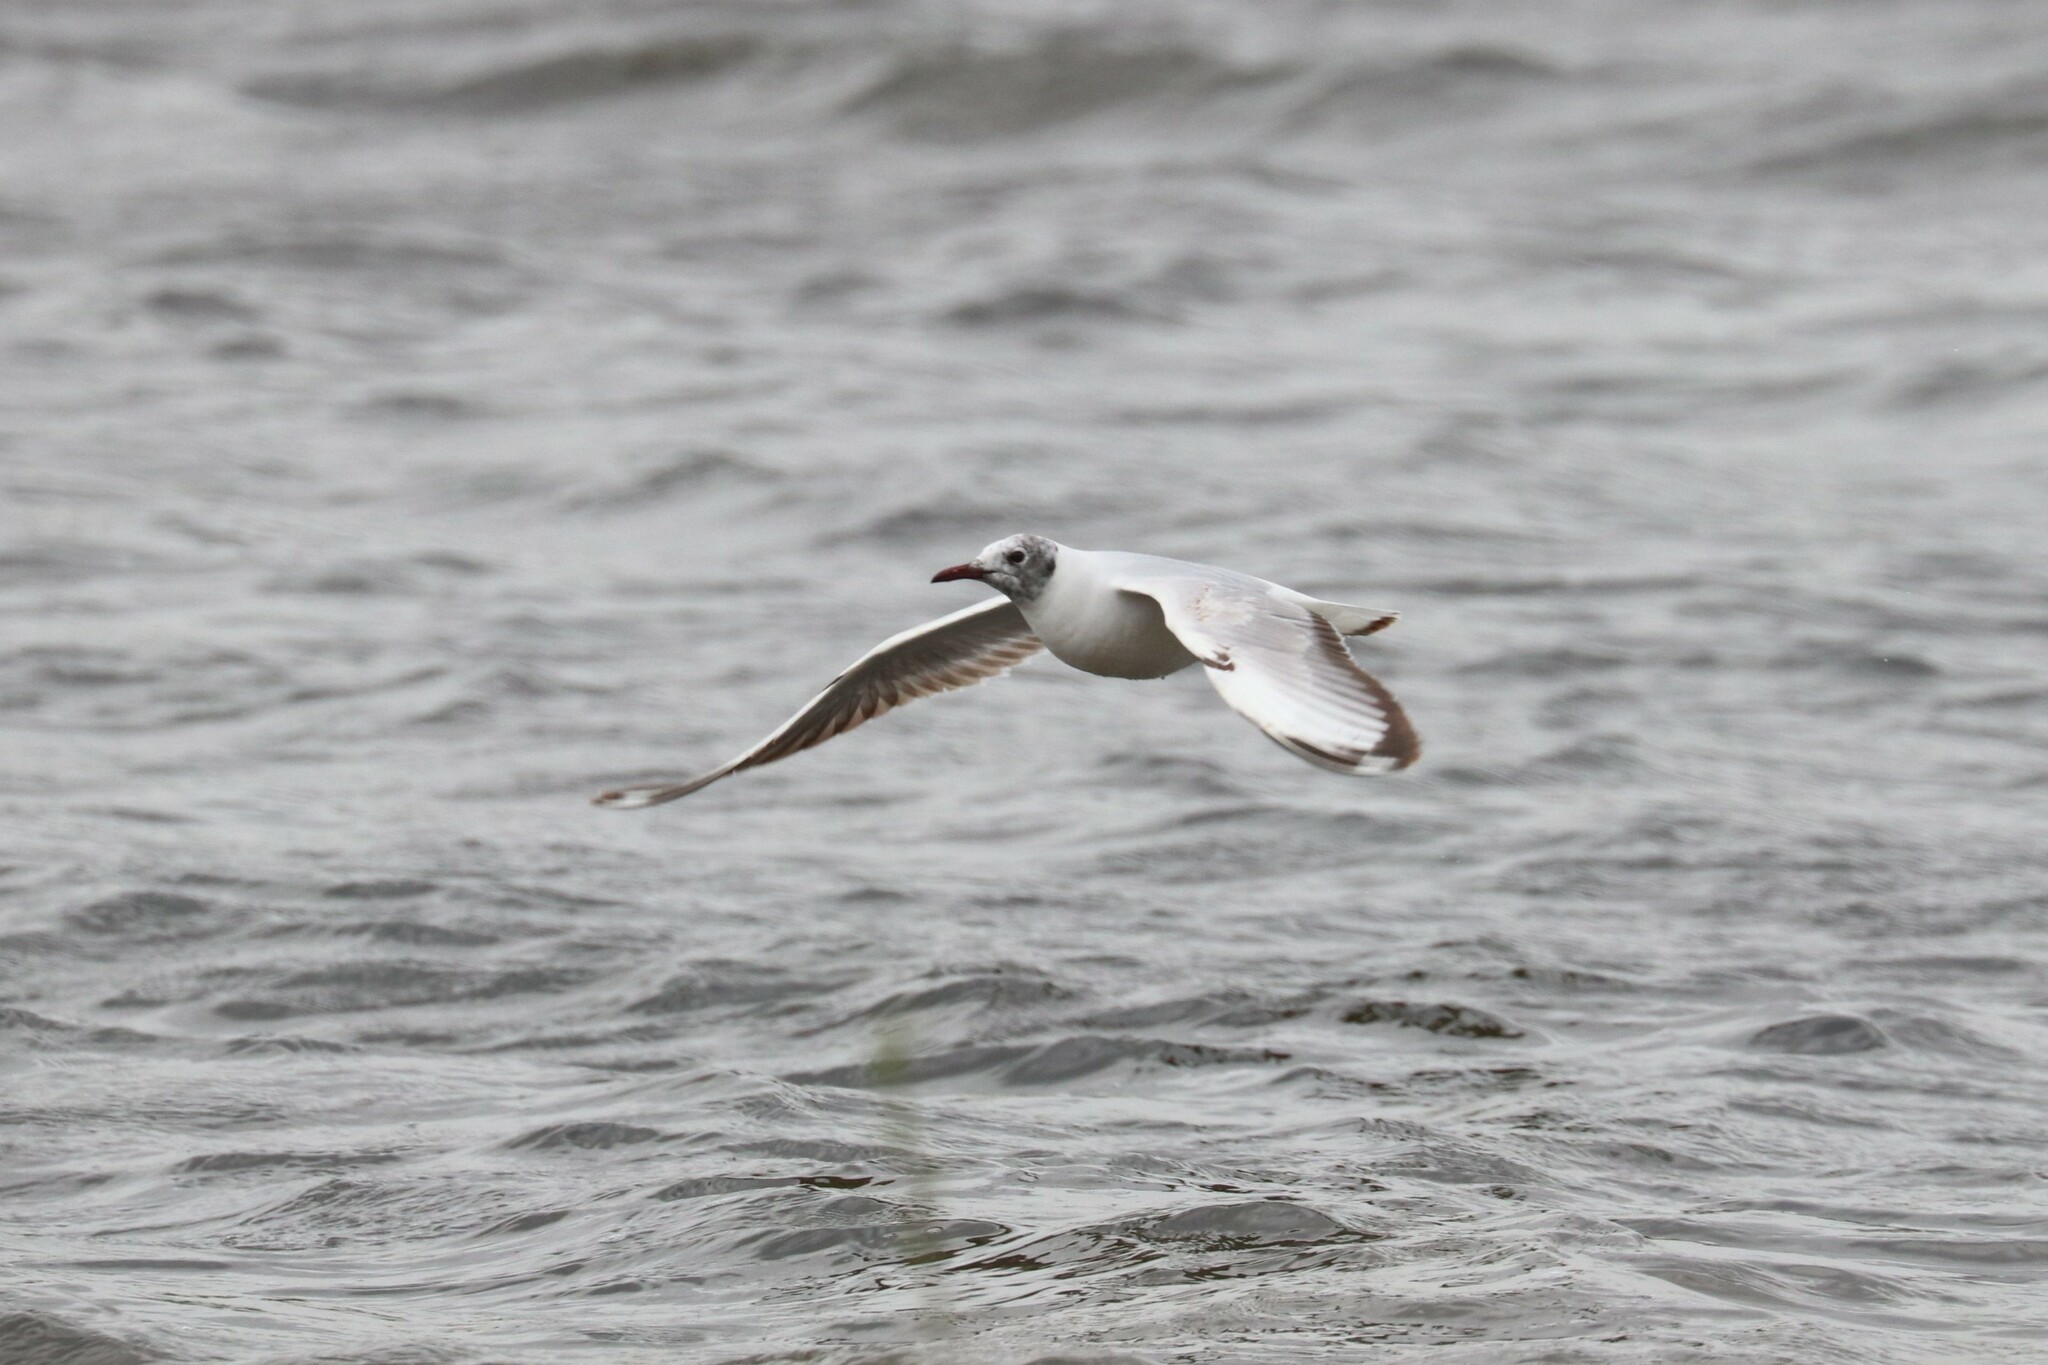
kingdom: Animalia
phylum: Chordata
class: Aves
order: Charadriiformes
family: Laridae
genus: Chroicocephalus
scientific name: Chroicocephalus ridibundus
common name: Black-headed gull
